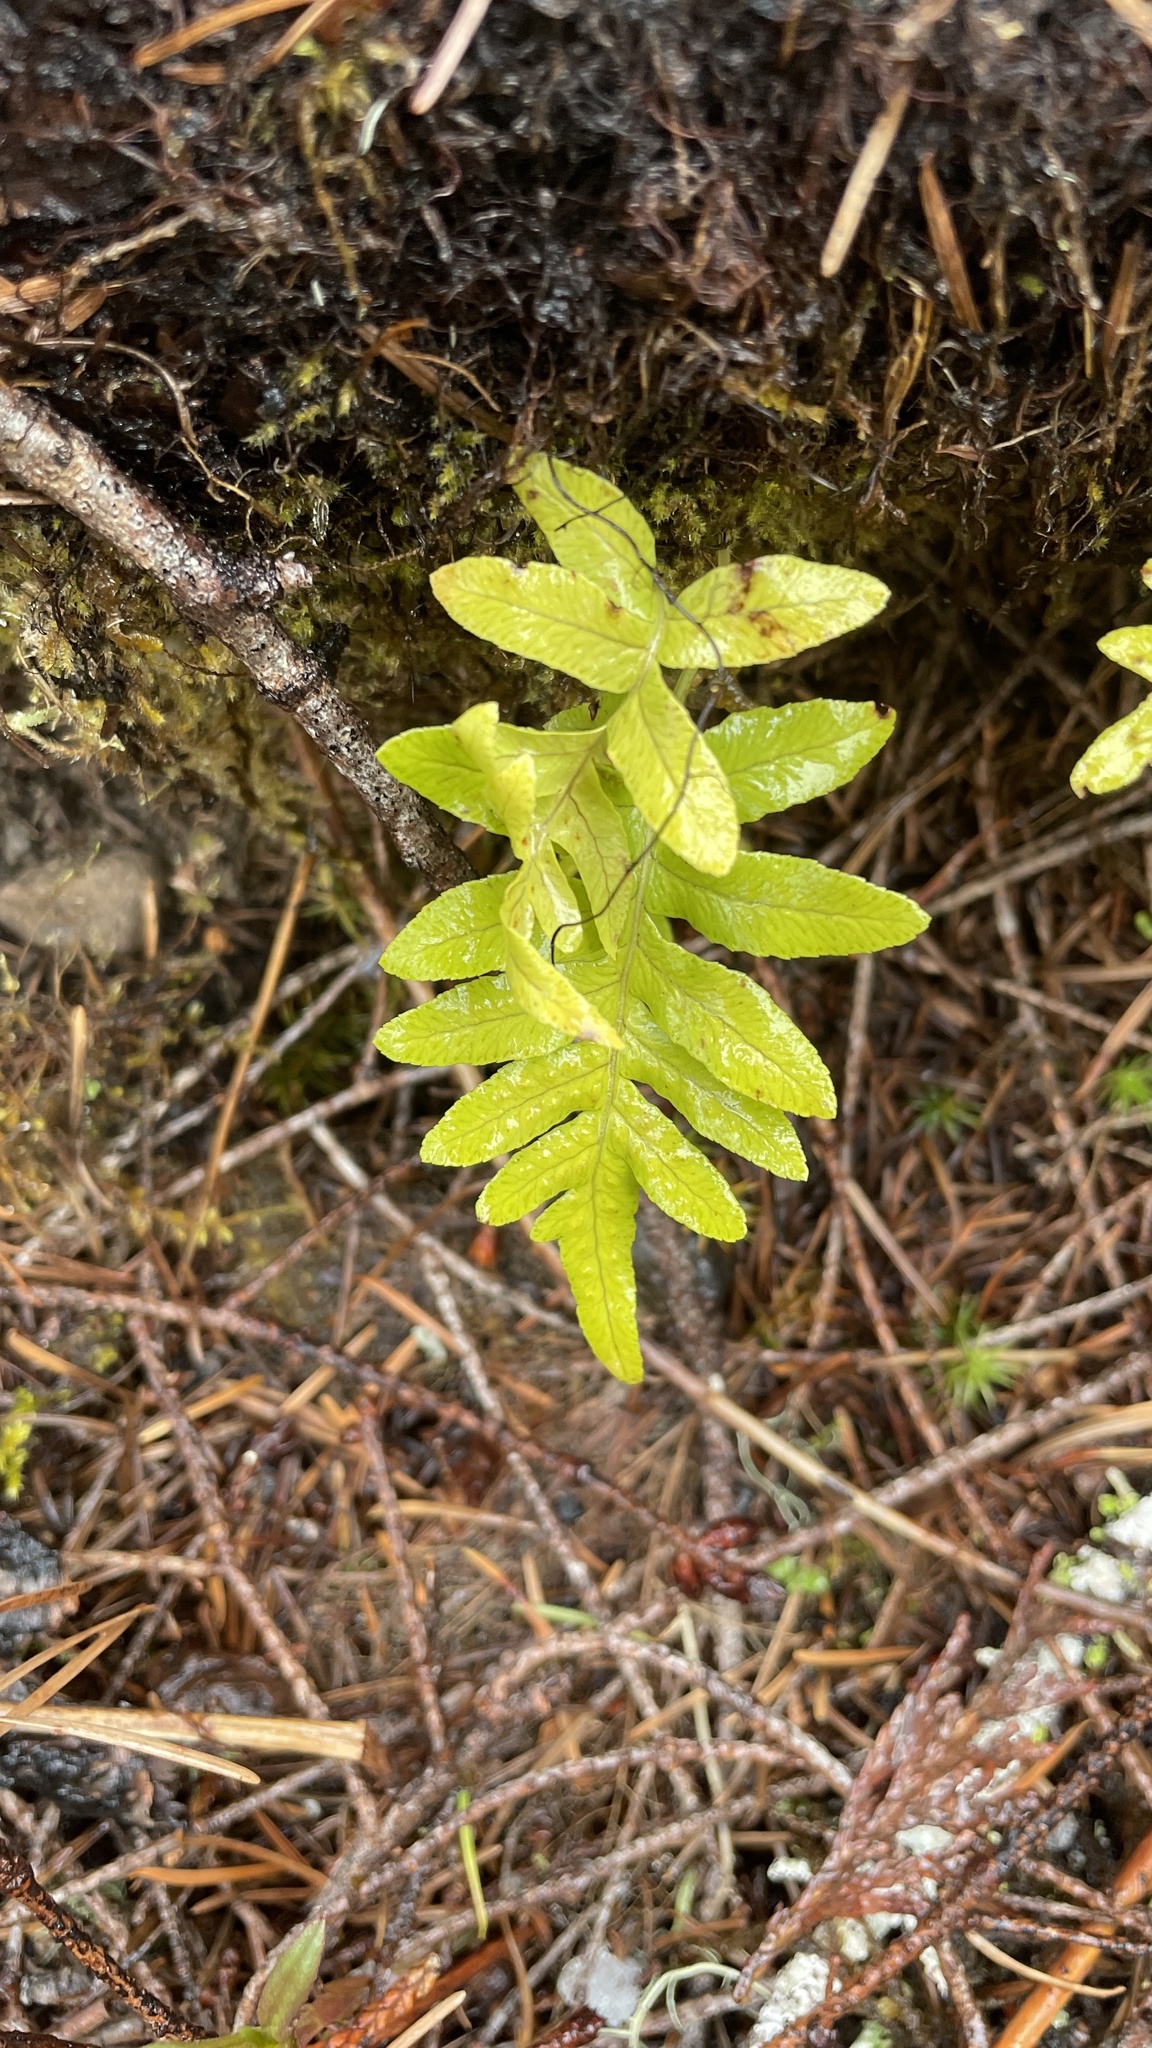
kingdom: Plantae
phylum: Tracheophyta
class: Polypodiopsida
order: Polypodiales
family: Polypodiaceae
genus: Polypodium
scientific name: Polypodium glycyrrhiza
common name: Licorice fern
